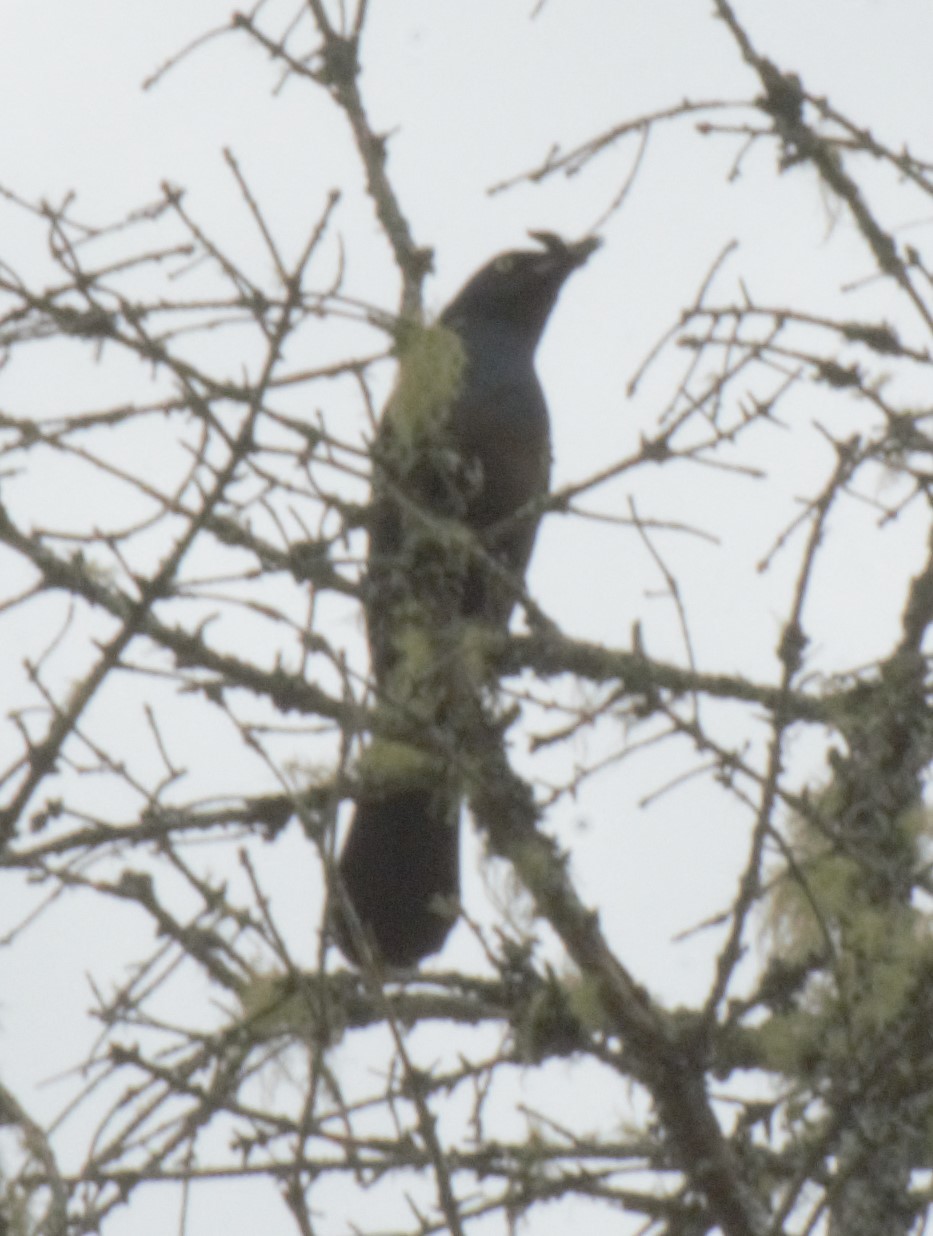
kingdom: Animalia
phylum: Chordata
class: Aves
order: Passeriformes
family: Icteridae
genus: Quiscalus
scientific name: Quiscalus quiscula
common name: Common grackle
